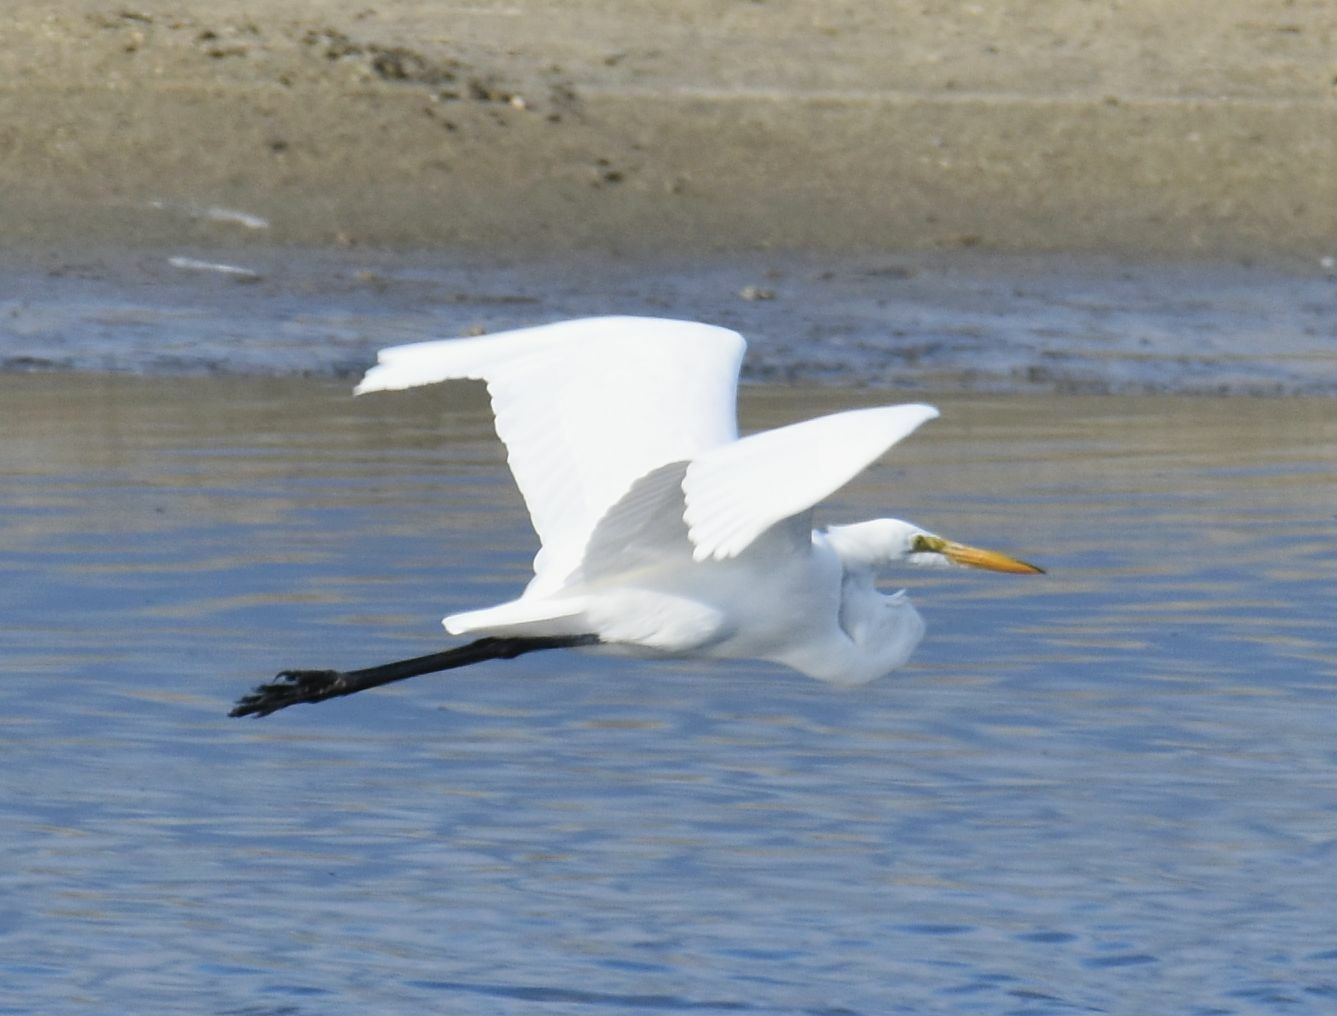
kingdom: Animalia
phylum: Chordata
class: Aves
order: Pelecaniformes
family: Ardeidae
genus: Ardea
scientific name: Ardea alba
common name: Great egret
